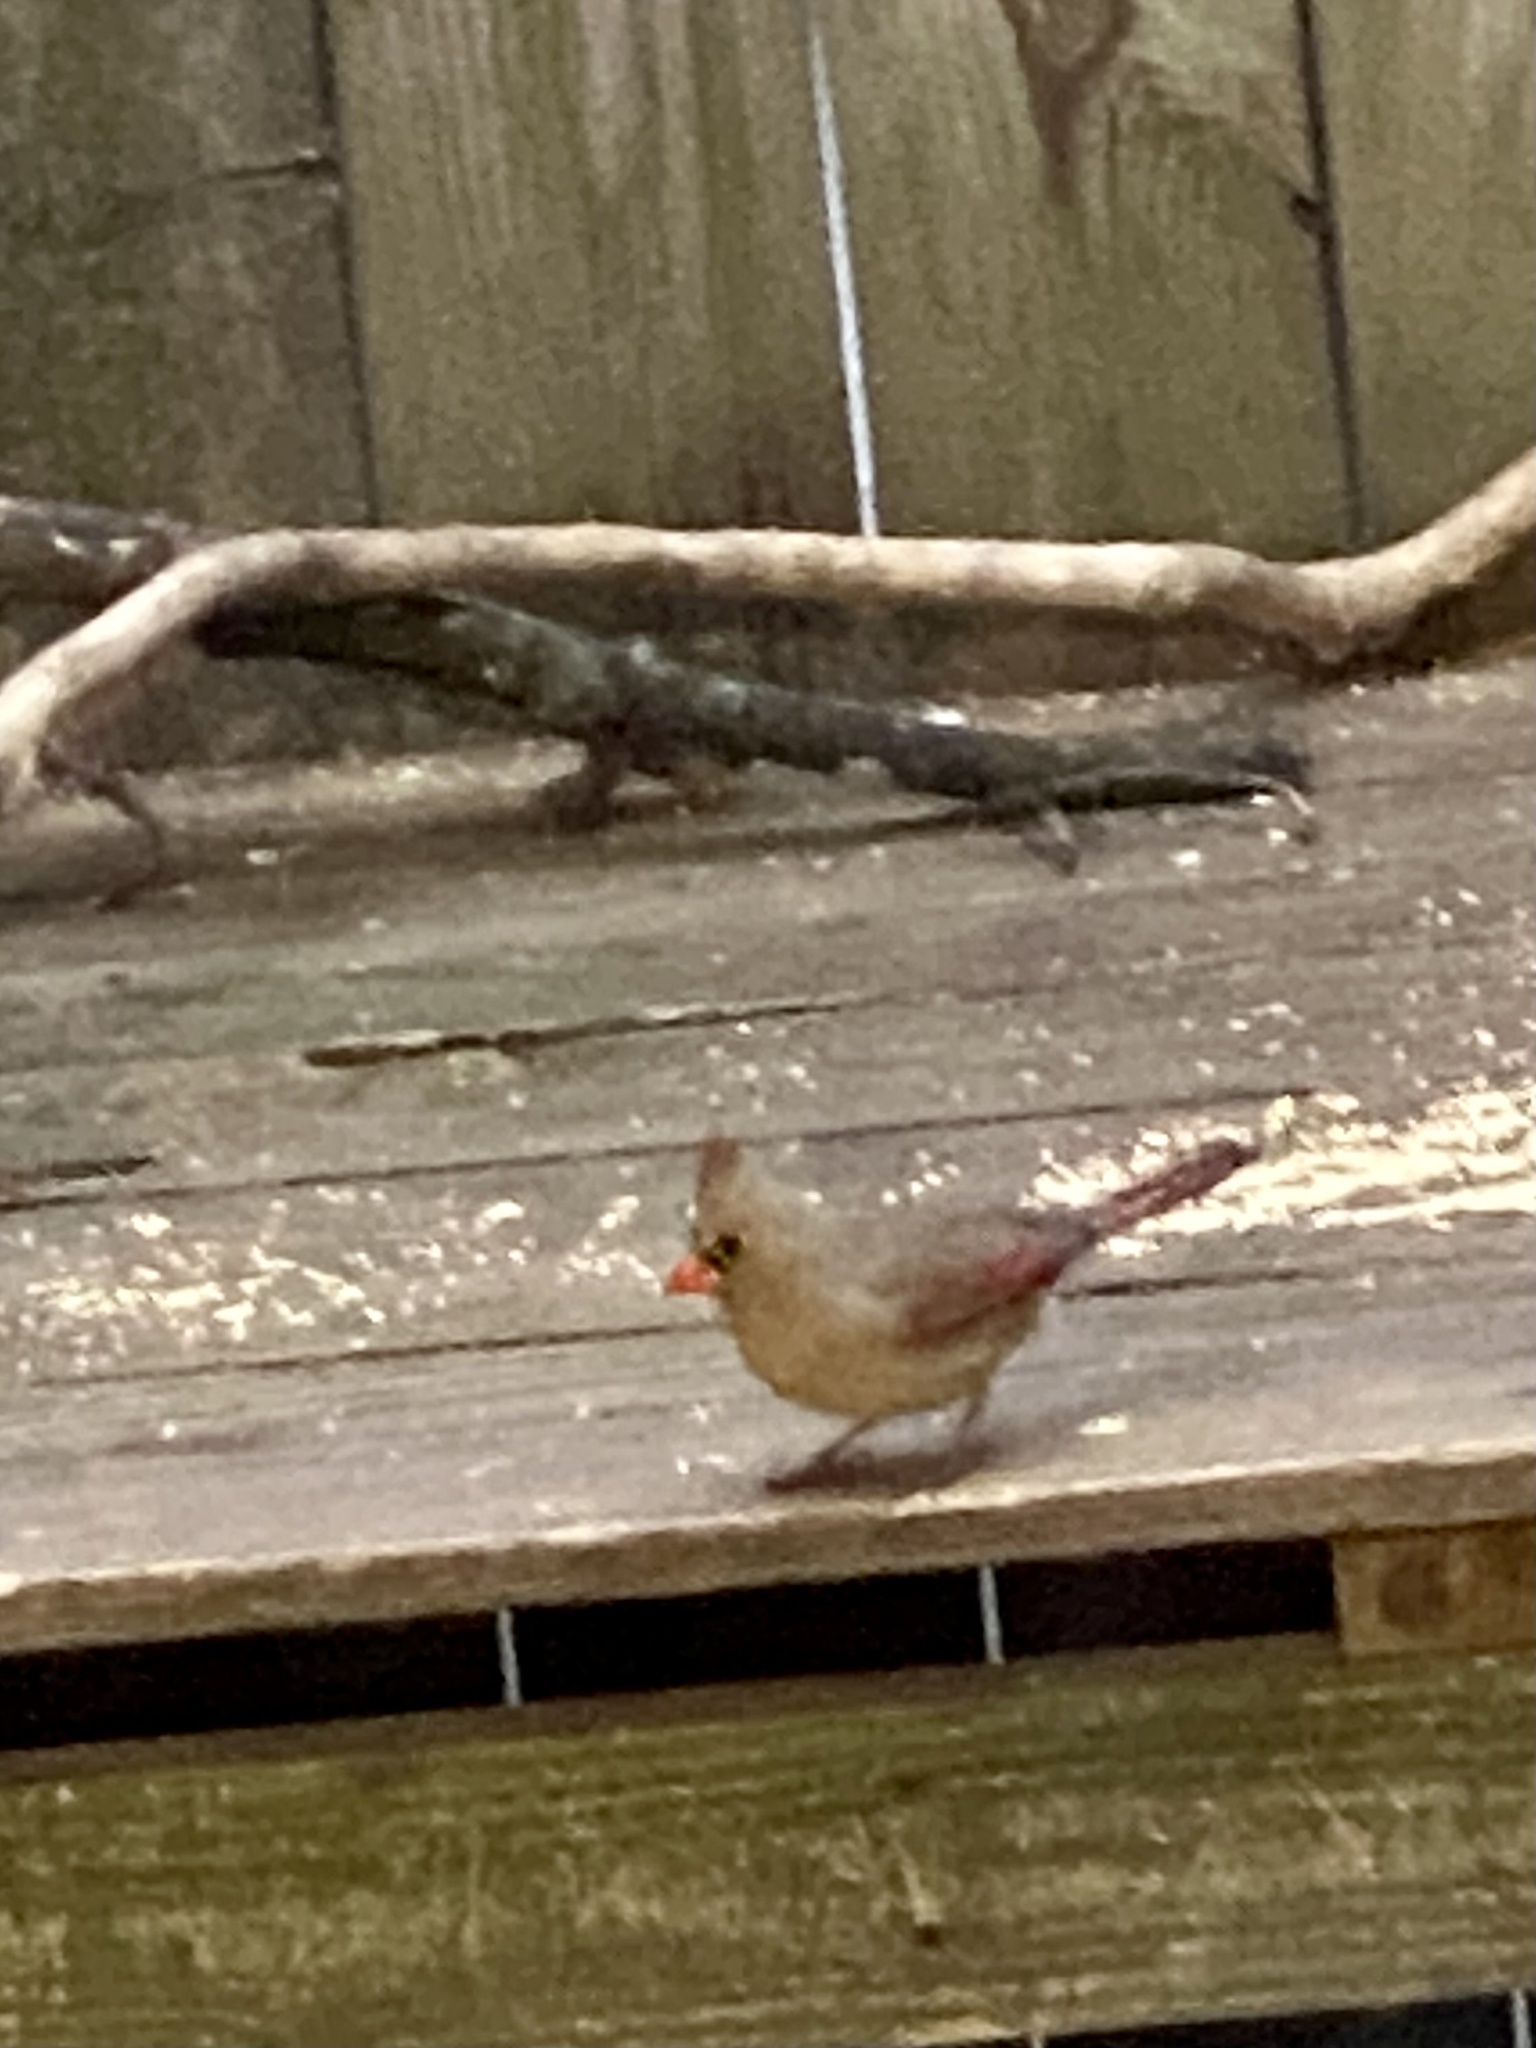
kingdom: Animalia
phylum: Chordata
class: Aves
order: Passeriformes
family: Cardinalidae
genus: Cardinalis
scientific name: Cardinalis cardinalis
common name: Northern cardinal
